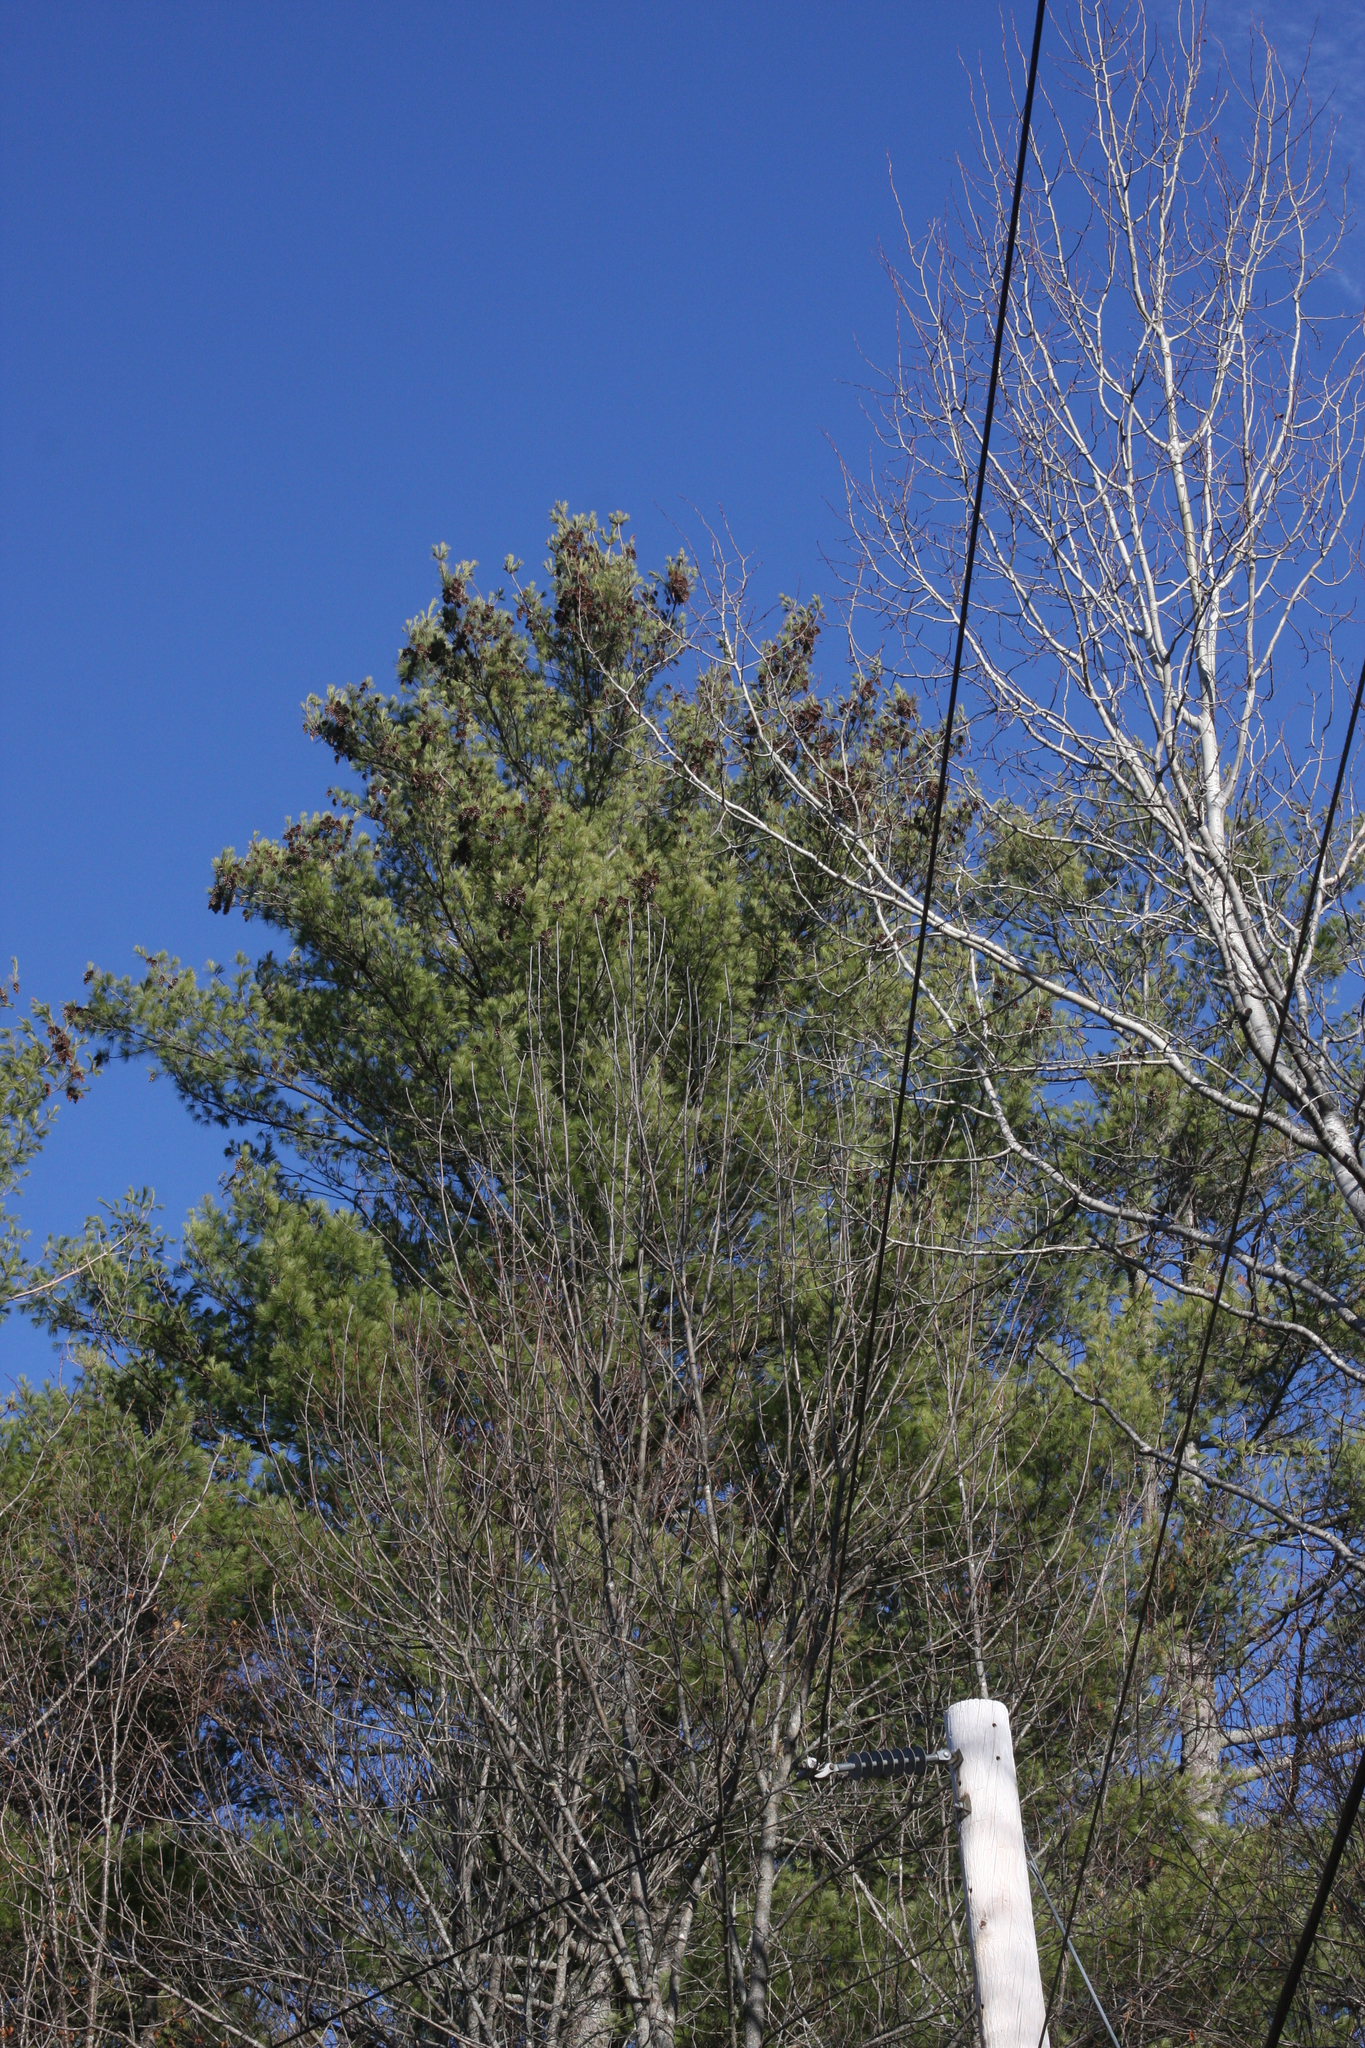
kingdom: Plantae
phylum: Tracheophyta
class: Pinopsida
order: Pinales
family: Pinaceae
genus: Pinus
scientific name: Pinus strobus
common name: Weymouth pine
